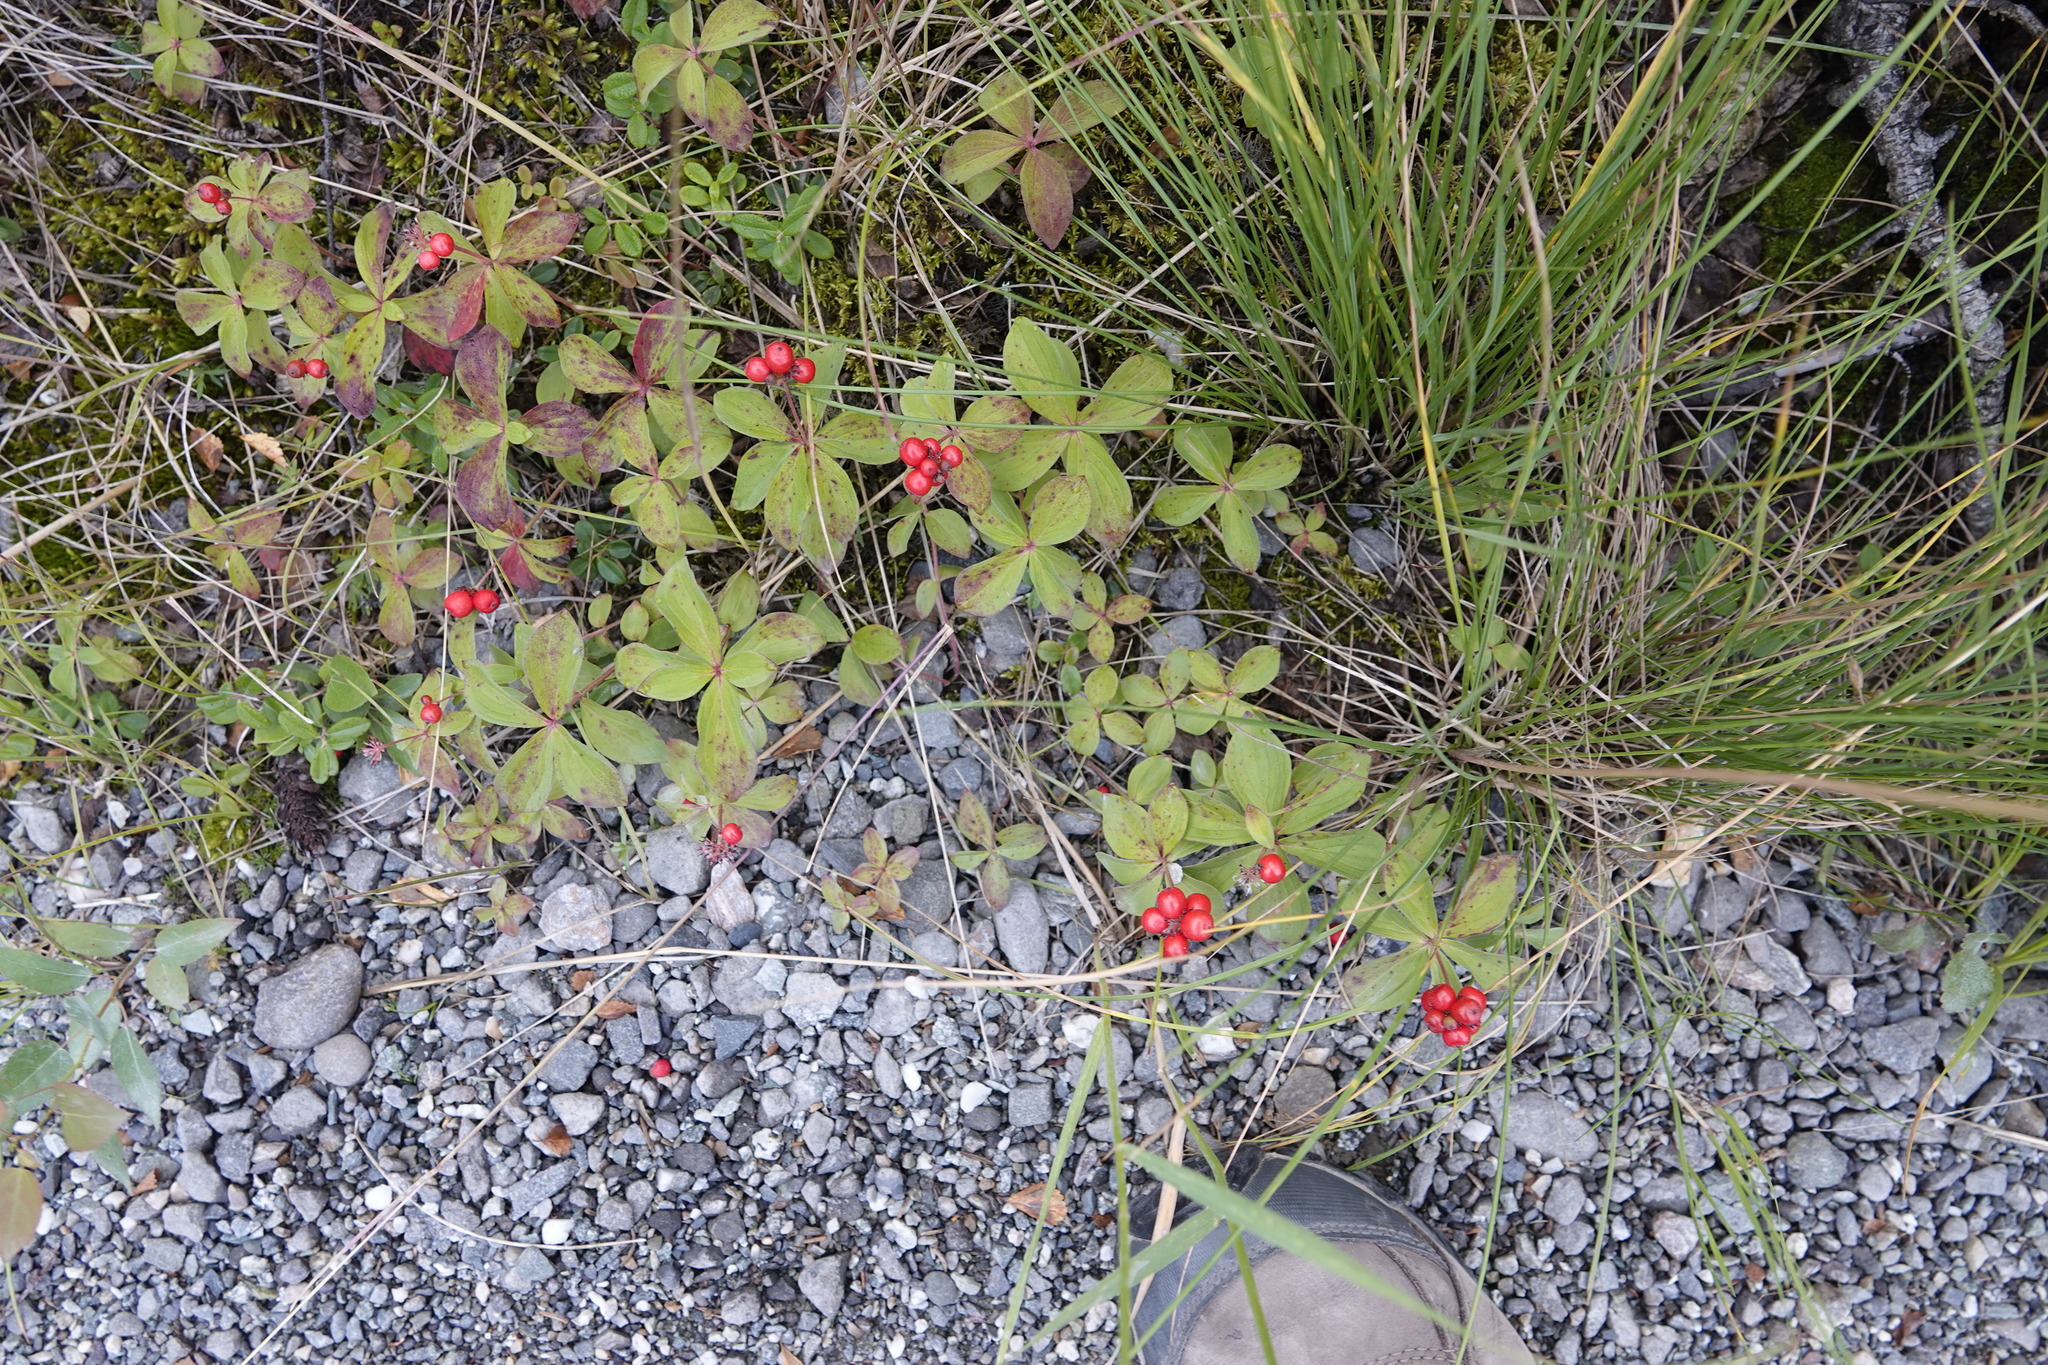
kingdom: Plantae
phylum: Tracheophyta
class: Magnoliopsida
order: Cornales
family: Cornaceae
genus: Cornus
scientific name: Cornus canadensis
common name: Creeping dogwood
